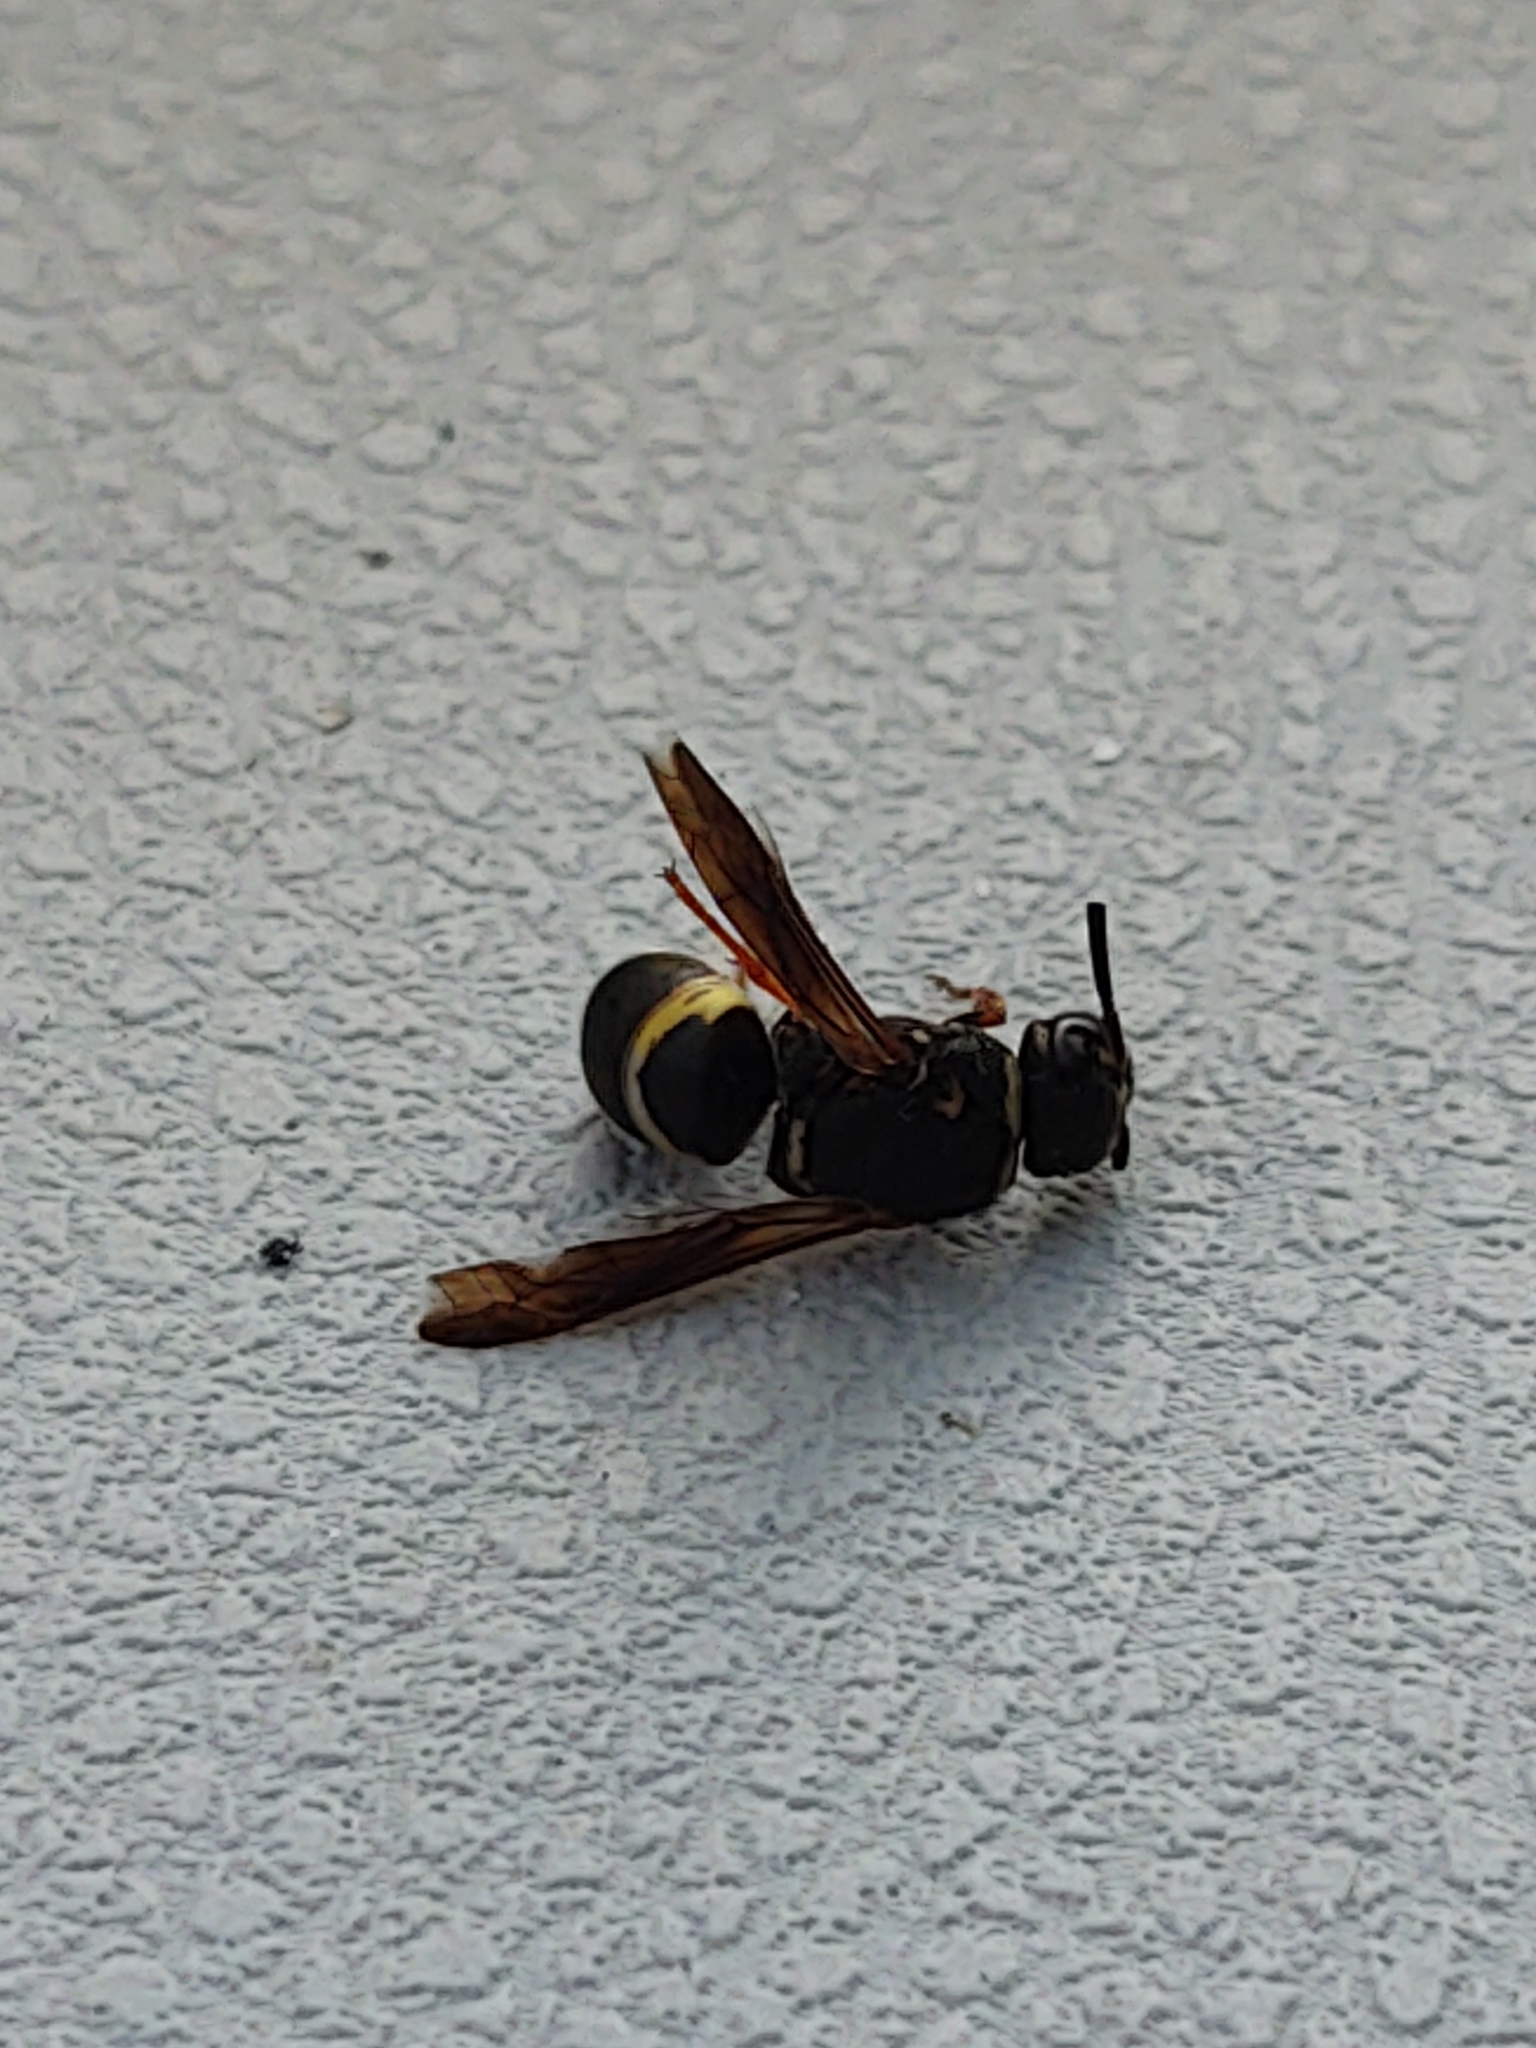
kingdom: Animalia
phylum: Arthropoda
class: Insecta
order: Hymenoptera
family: Eumenidae
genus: Euodynerus
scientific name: Euodynerus hidalgo
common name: Wasp
